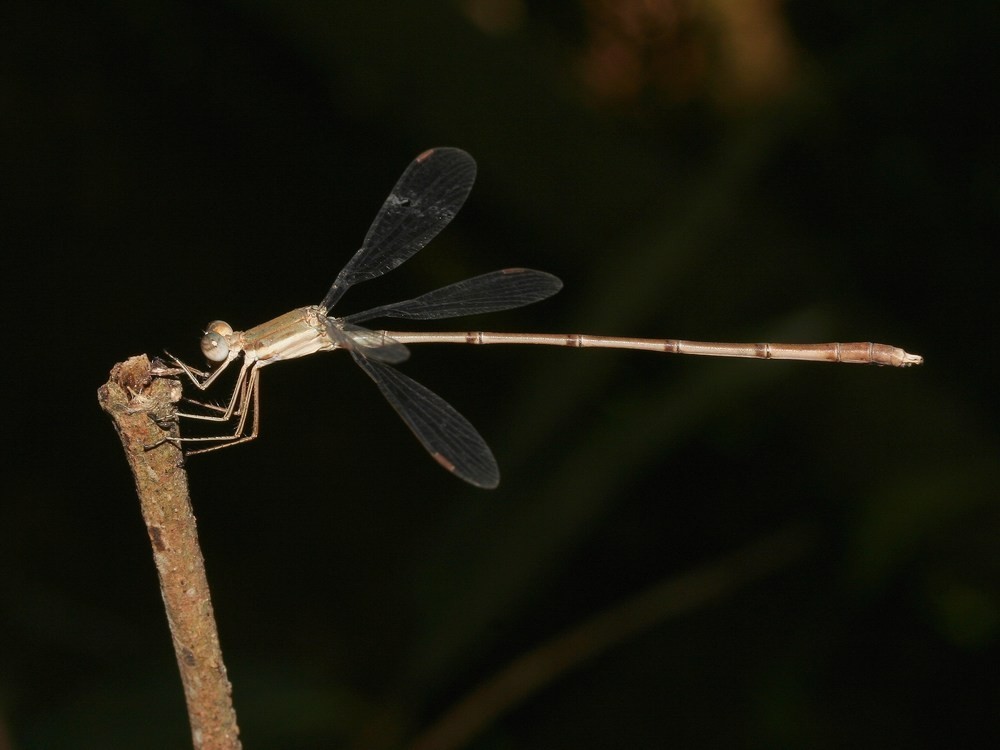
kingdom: Animalia
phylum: Arthropoda
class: Insecta
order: Odonata
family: Lestidae
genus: Lestes
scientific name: Lestes ochraceus
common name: Ochre spreadwing
